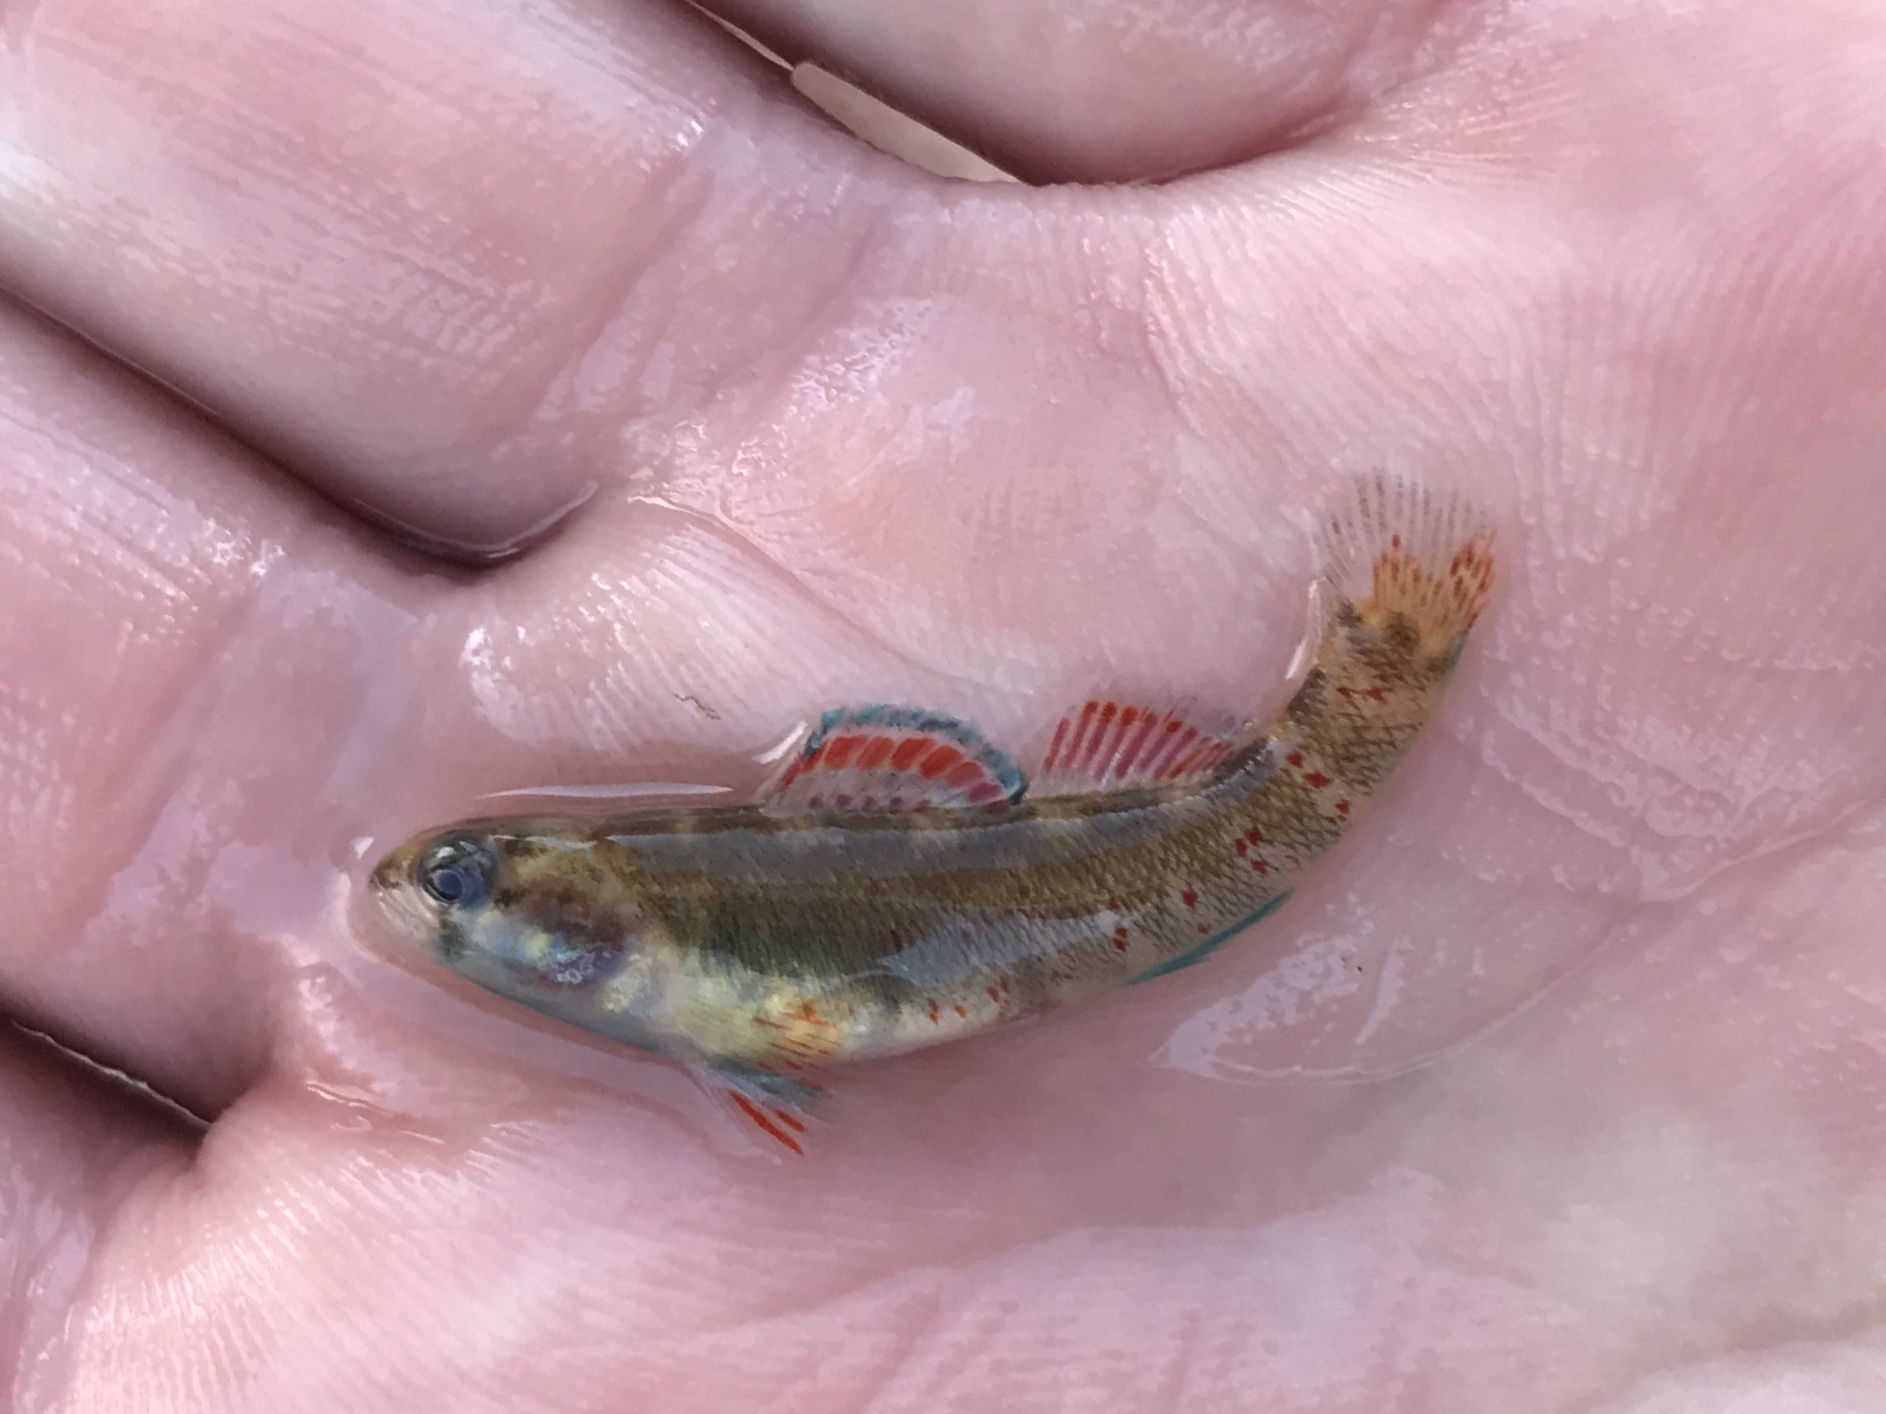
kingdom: Animalia
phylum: Chordata
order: Perciformes
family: Percidae
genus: Etheostoma
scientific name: Etheostoma lepidum
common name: Greenthroat darter
